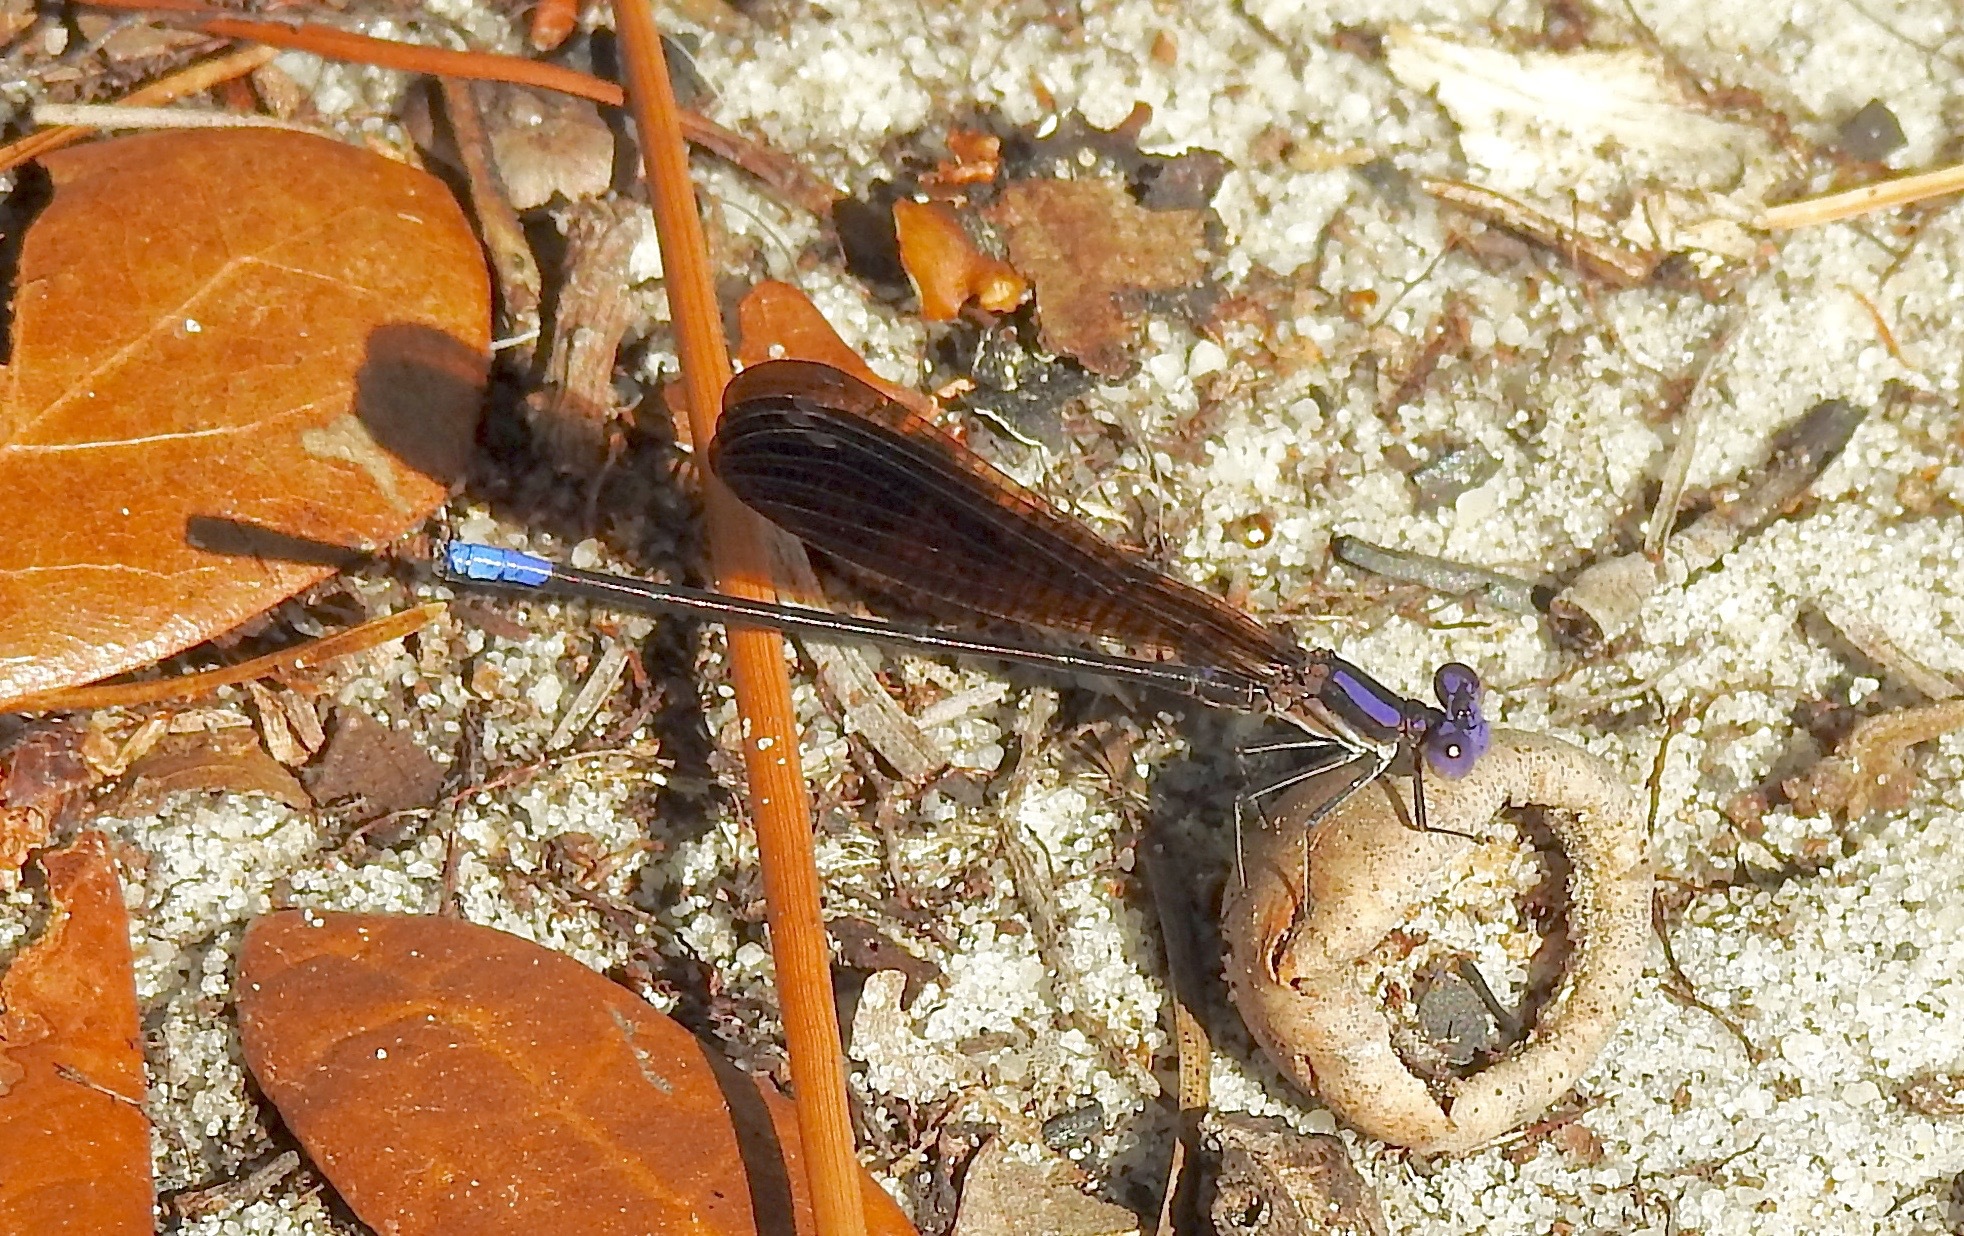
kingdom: Animalia
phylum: Arthropoda
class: Insecta
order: Odonata
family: Coenagrionidae
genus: Argia
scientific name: Argia fumipennis
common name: Variable dancer
